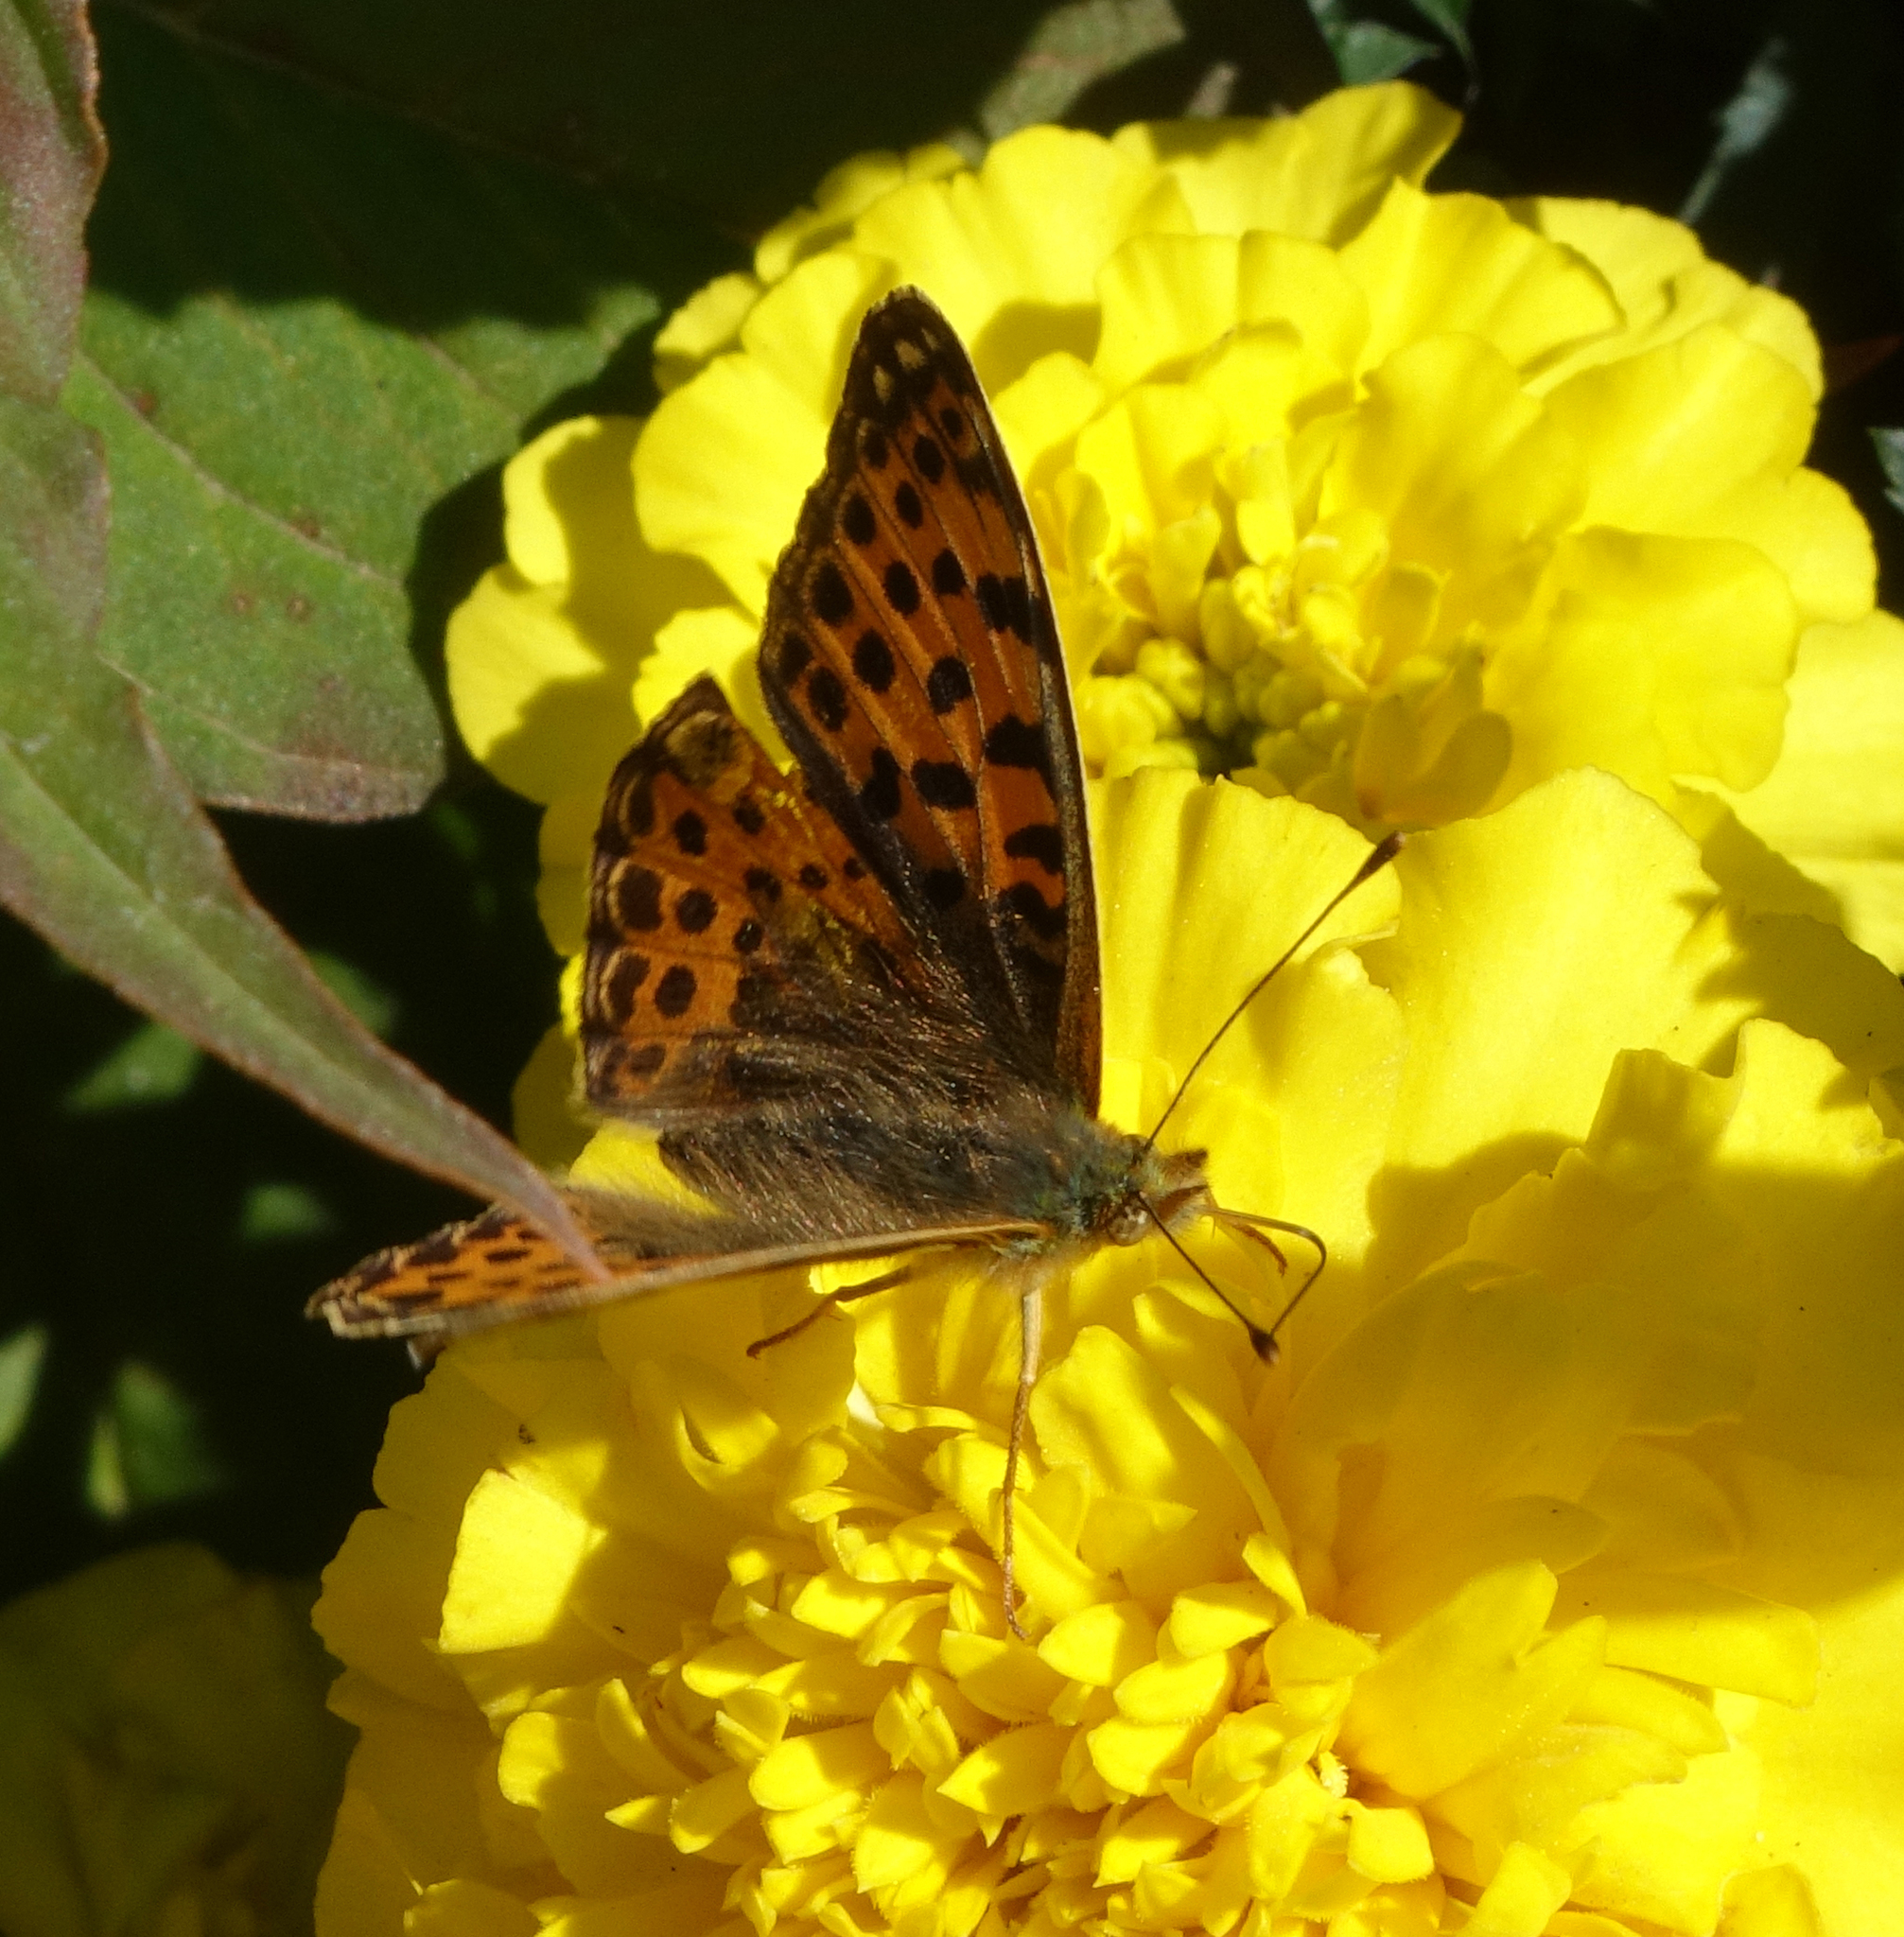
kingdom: Animalia
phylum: Arthropoda
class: Insecta
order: Lepidoptera
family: Nymphalidae
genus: Issoria
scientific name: Issoria lathonia
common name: Queen of spain fritillary
